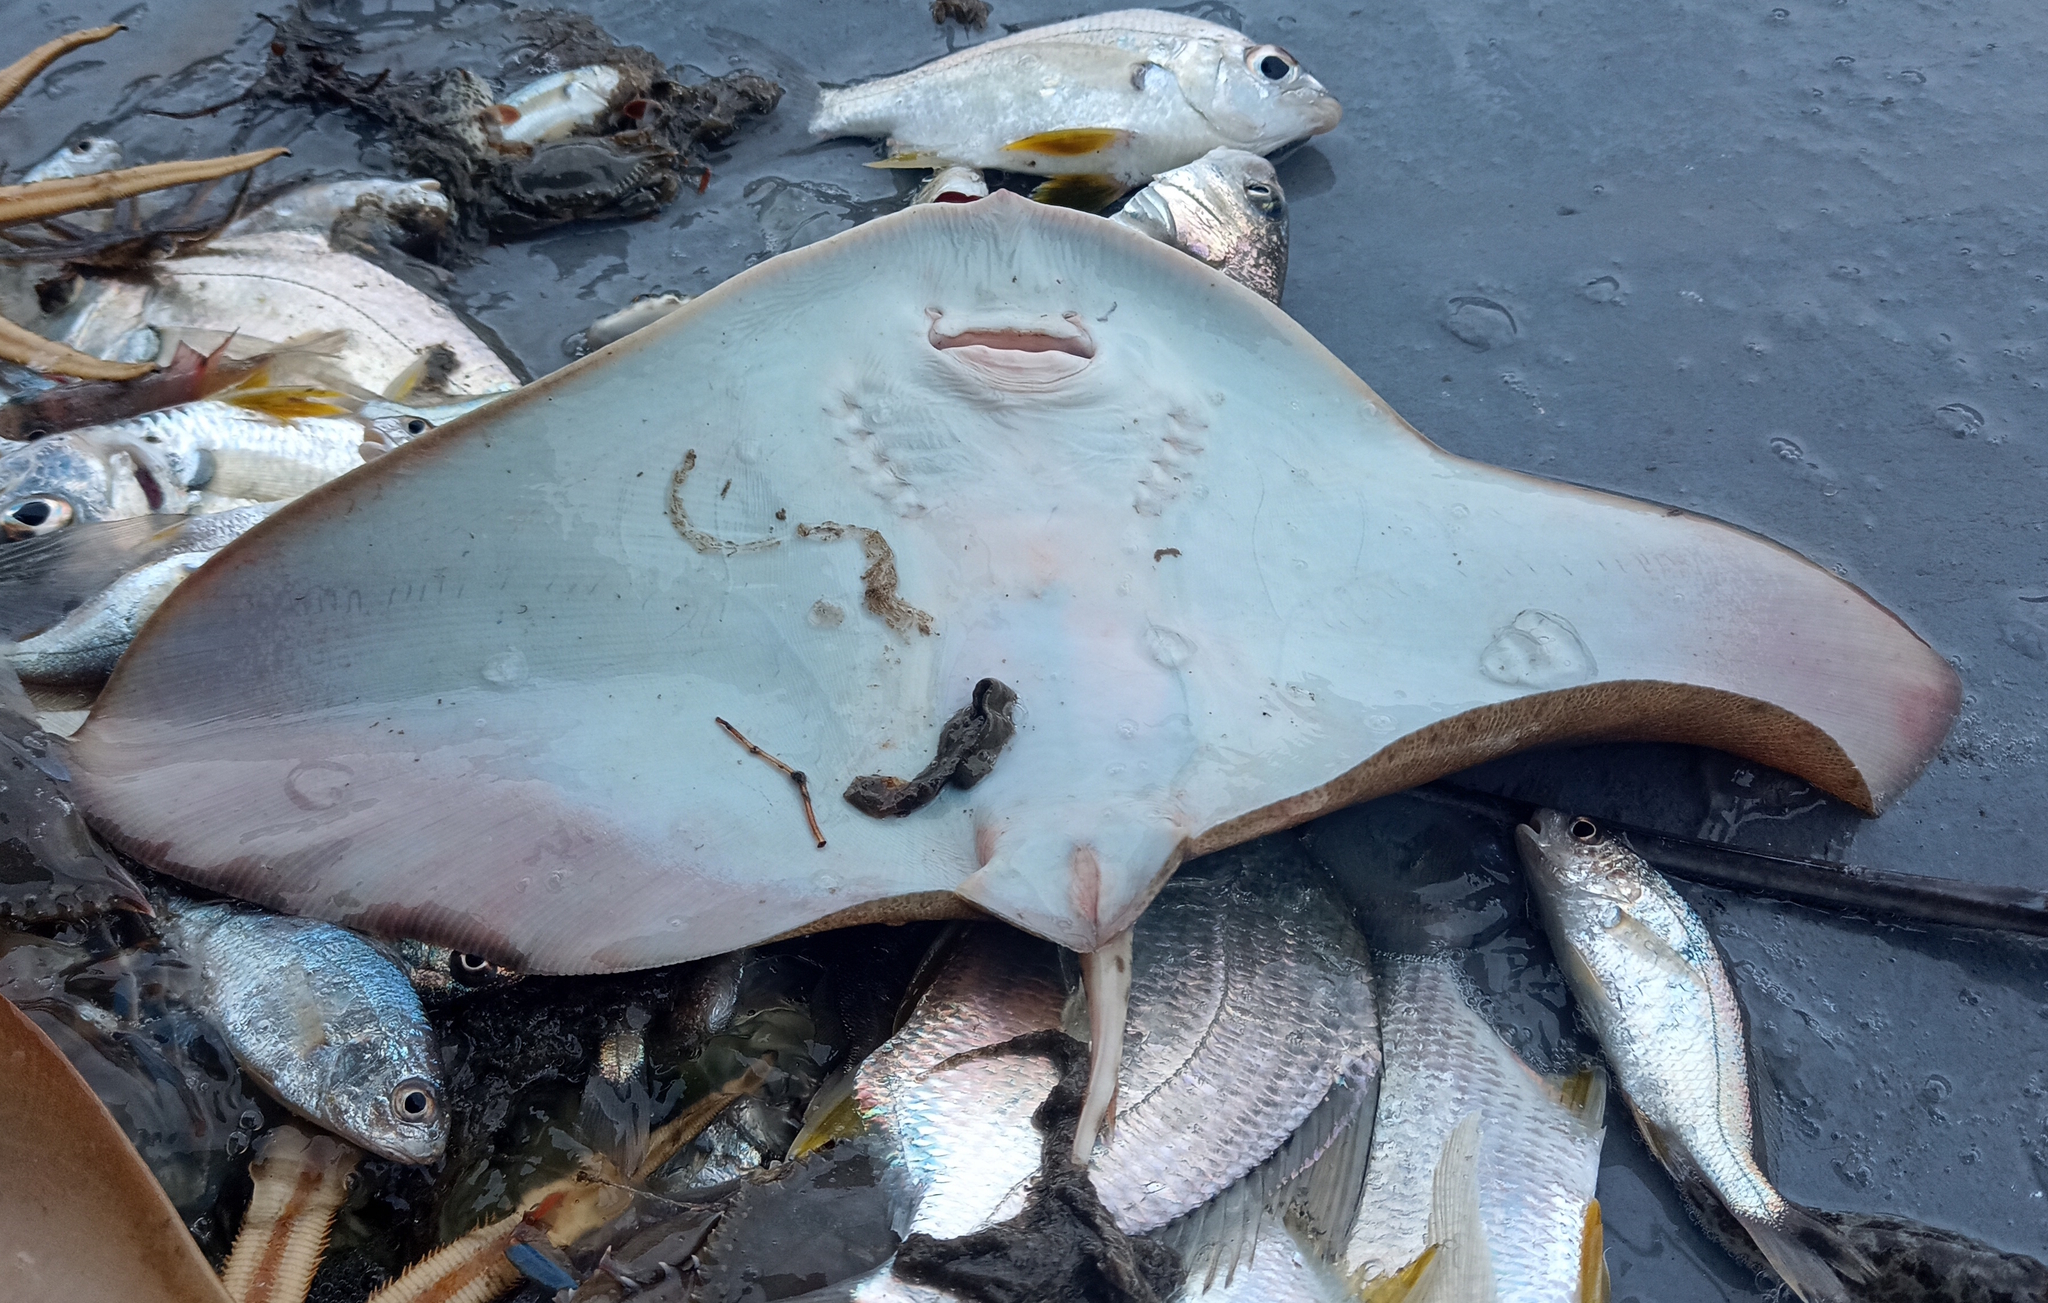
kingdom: Animalia
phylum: Chordata
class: Elasmobranchii
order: Myliobatiformes
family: Gymnuridae
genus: Gymnura
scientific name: Gymnura altavela
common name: Spiny butterfly ray
